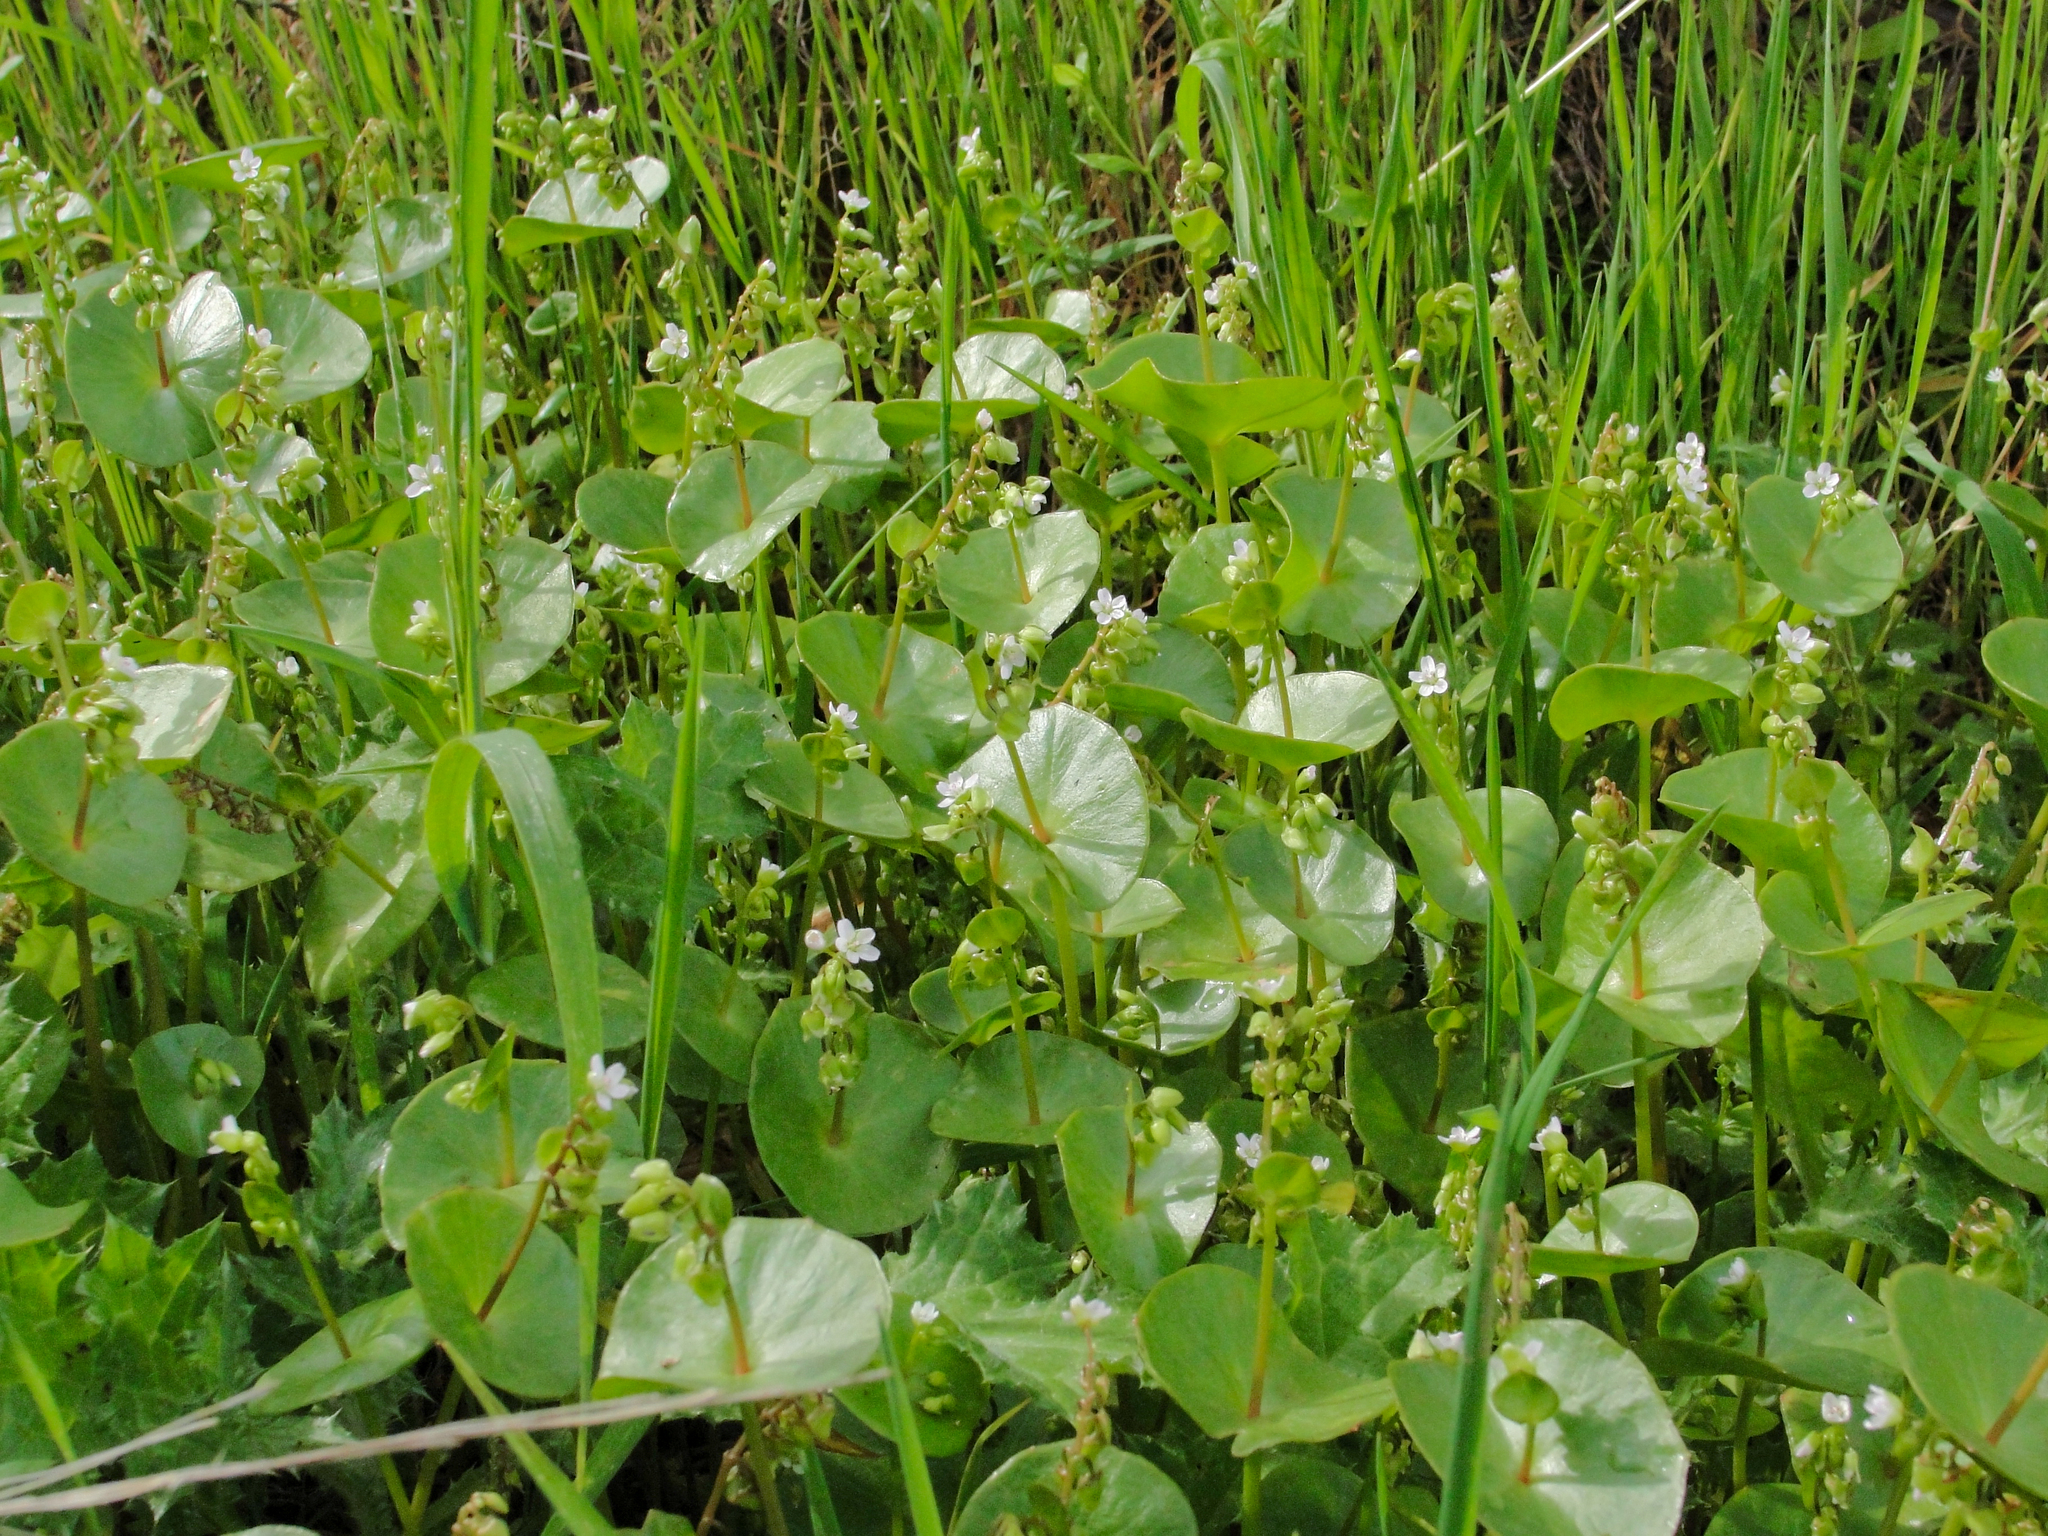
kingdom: Plantae
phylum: Tracheophyta
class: Magnoliopsida
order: Caryophyllales
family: Montiaceae
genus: Claytonia
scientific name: Claytonia perfoliata
